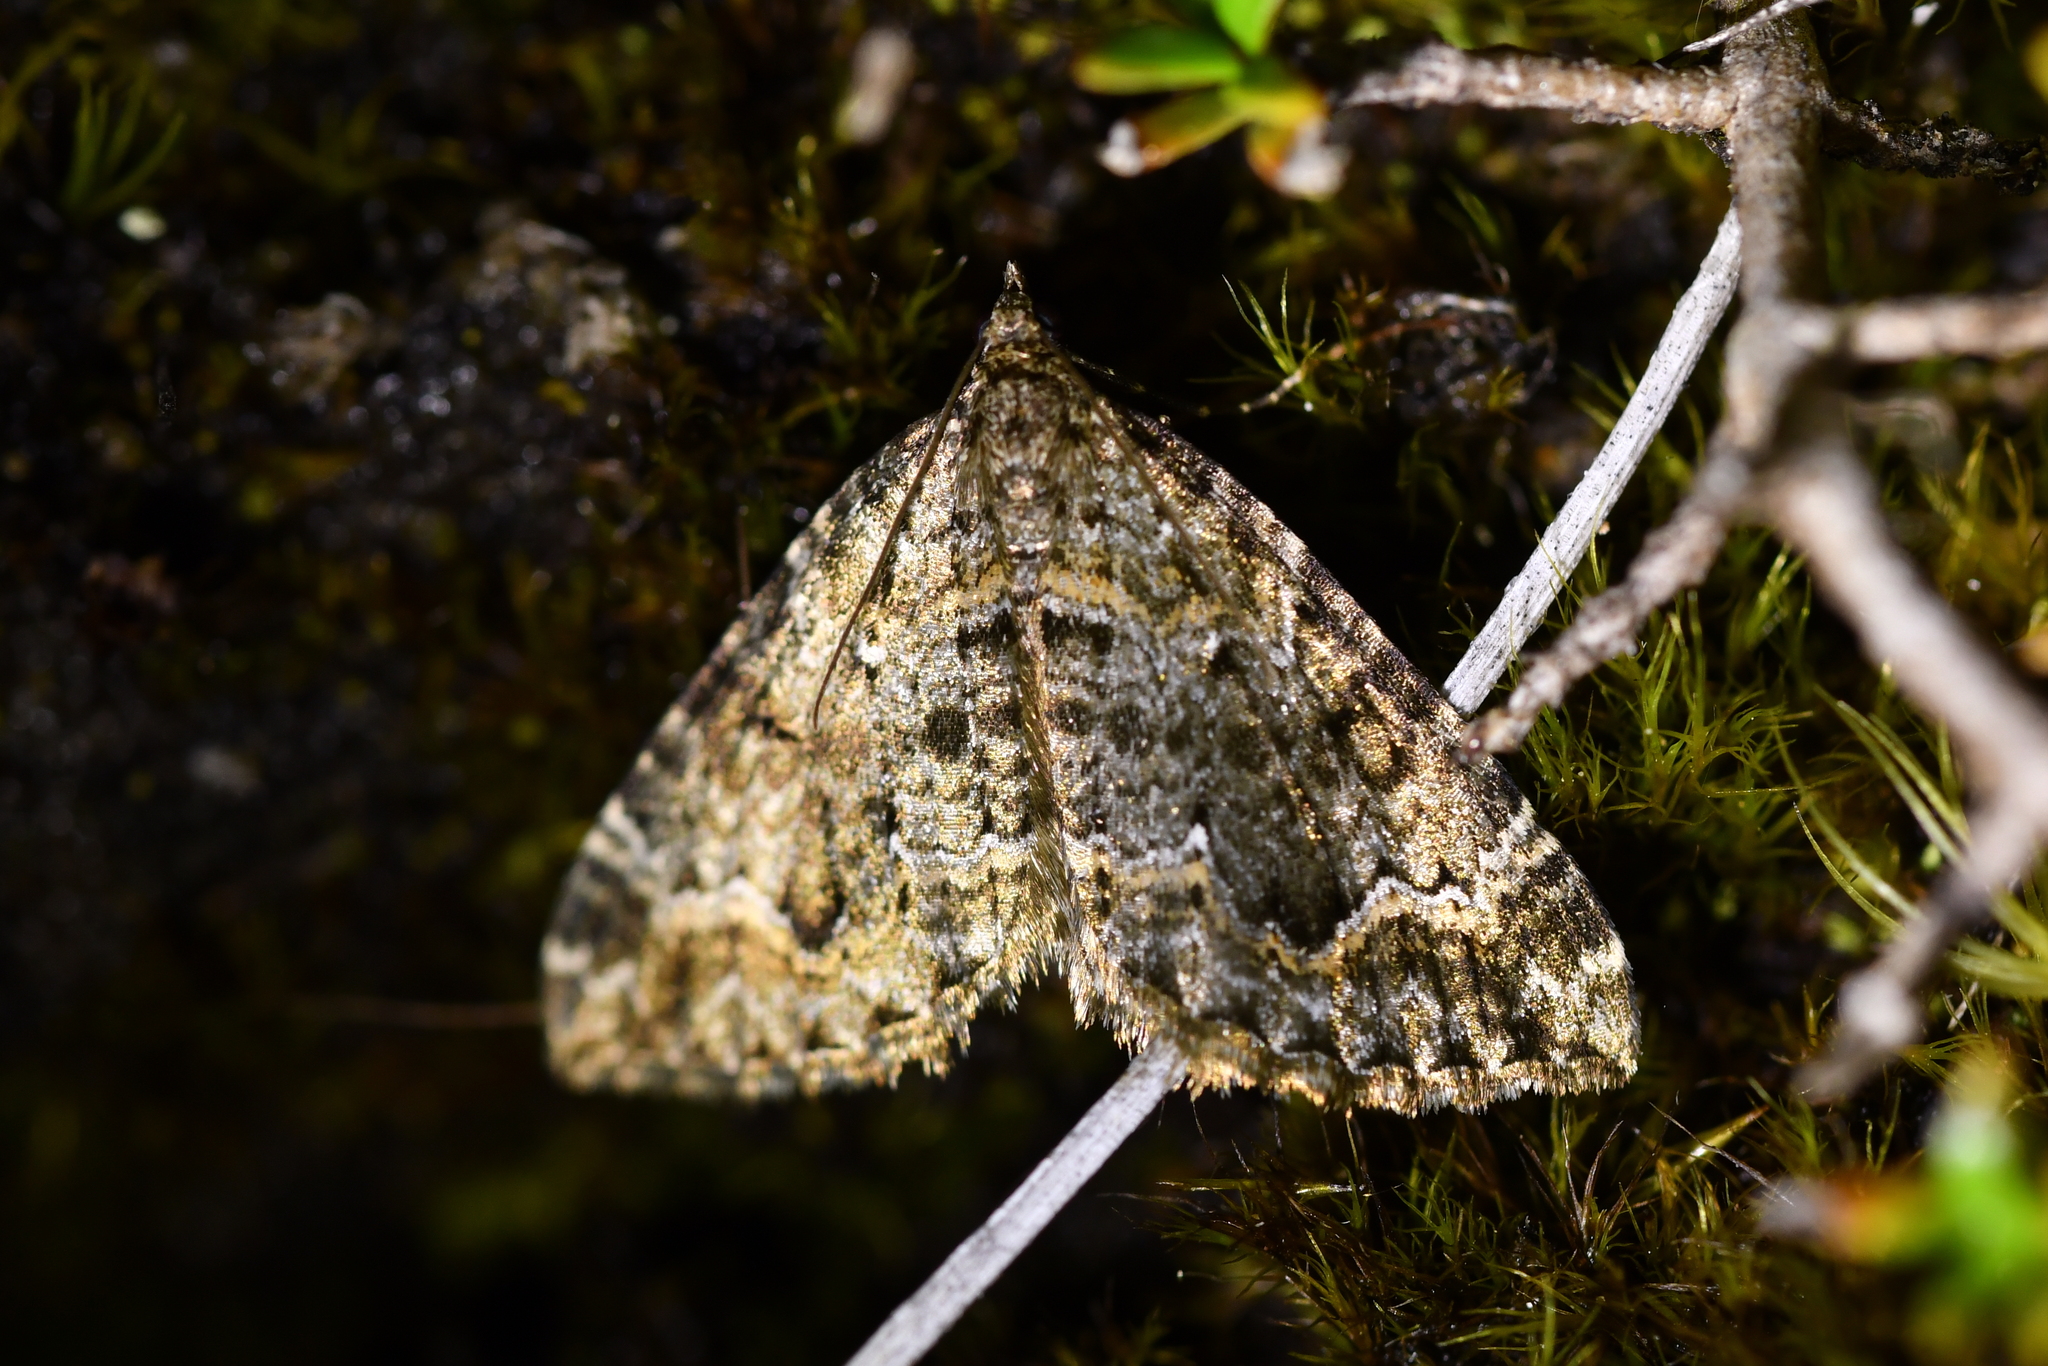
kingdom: Animalia
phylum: Arthropoda
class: Insecta
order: Lepidoptera
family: Geometridae
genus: Hydriomena
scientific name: Hydriomena hemizona
